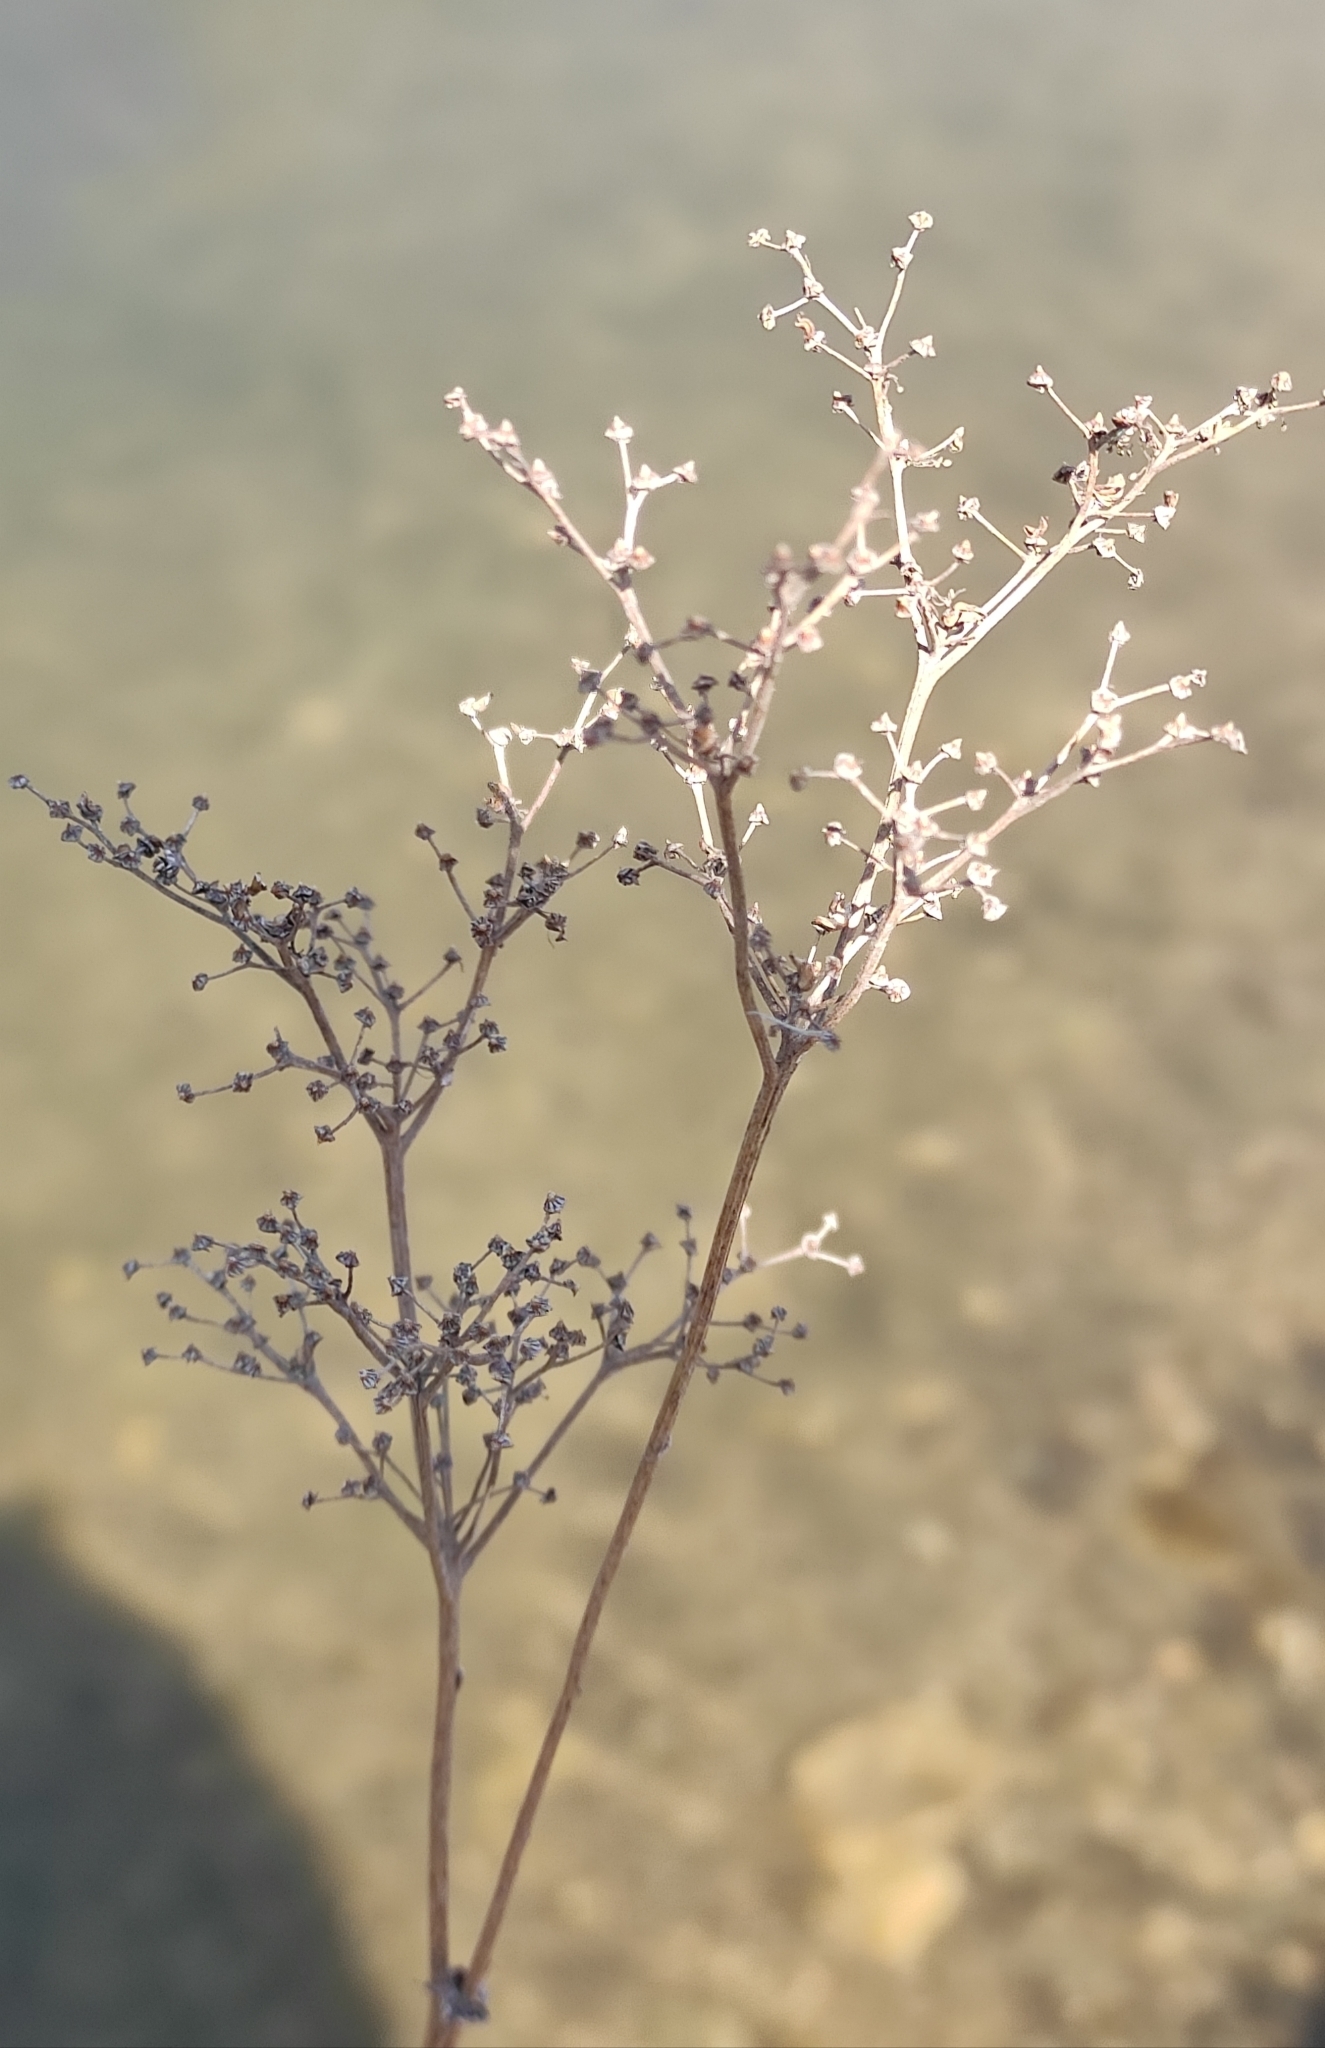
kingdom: Plantae
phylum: Tracheophyta
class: Magnoliopsida
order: Rosales
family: Rosaceae
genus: Filipendula
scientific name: Filipendula digitata
